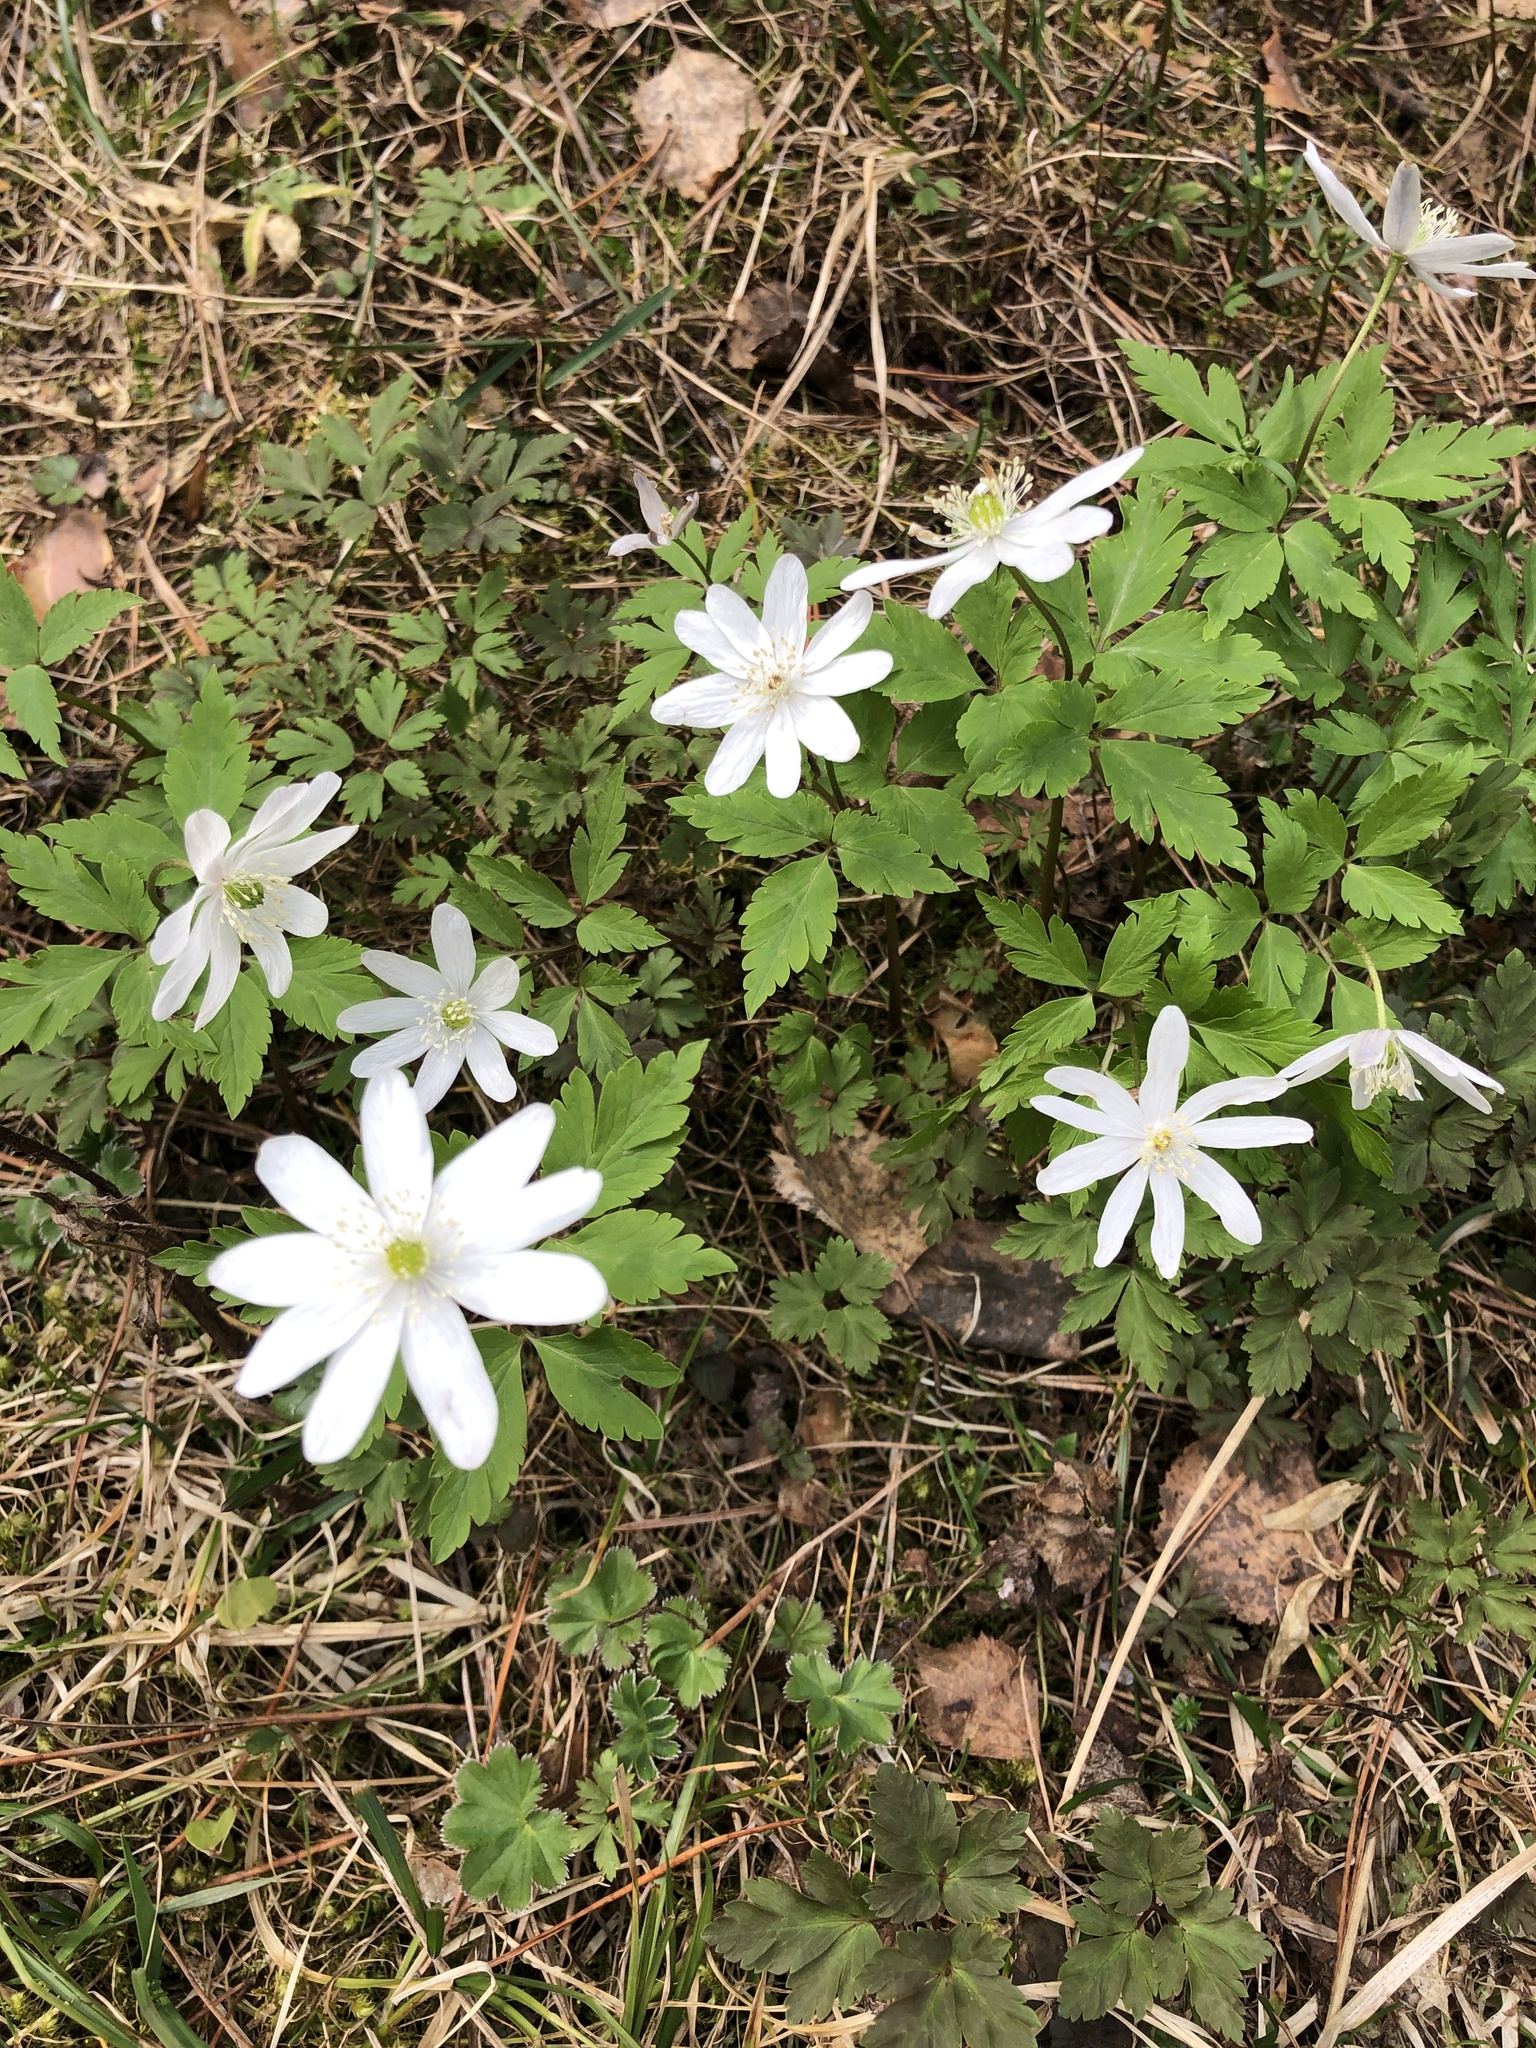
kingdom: Plantae
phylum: Tracheophyta
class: Magnoliopsida
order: Ranunculales
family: Ranunculaceae
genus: Anemone
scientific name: Anemone altaica
